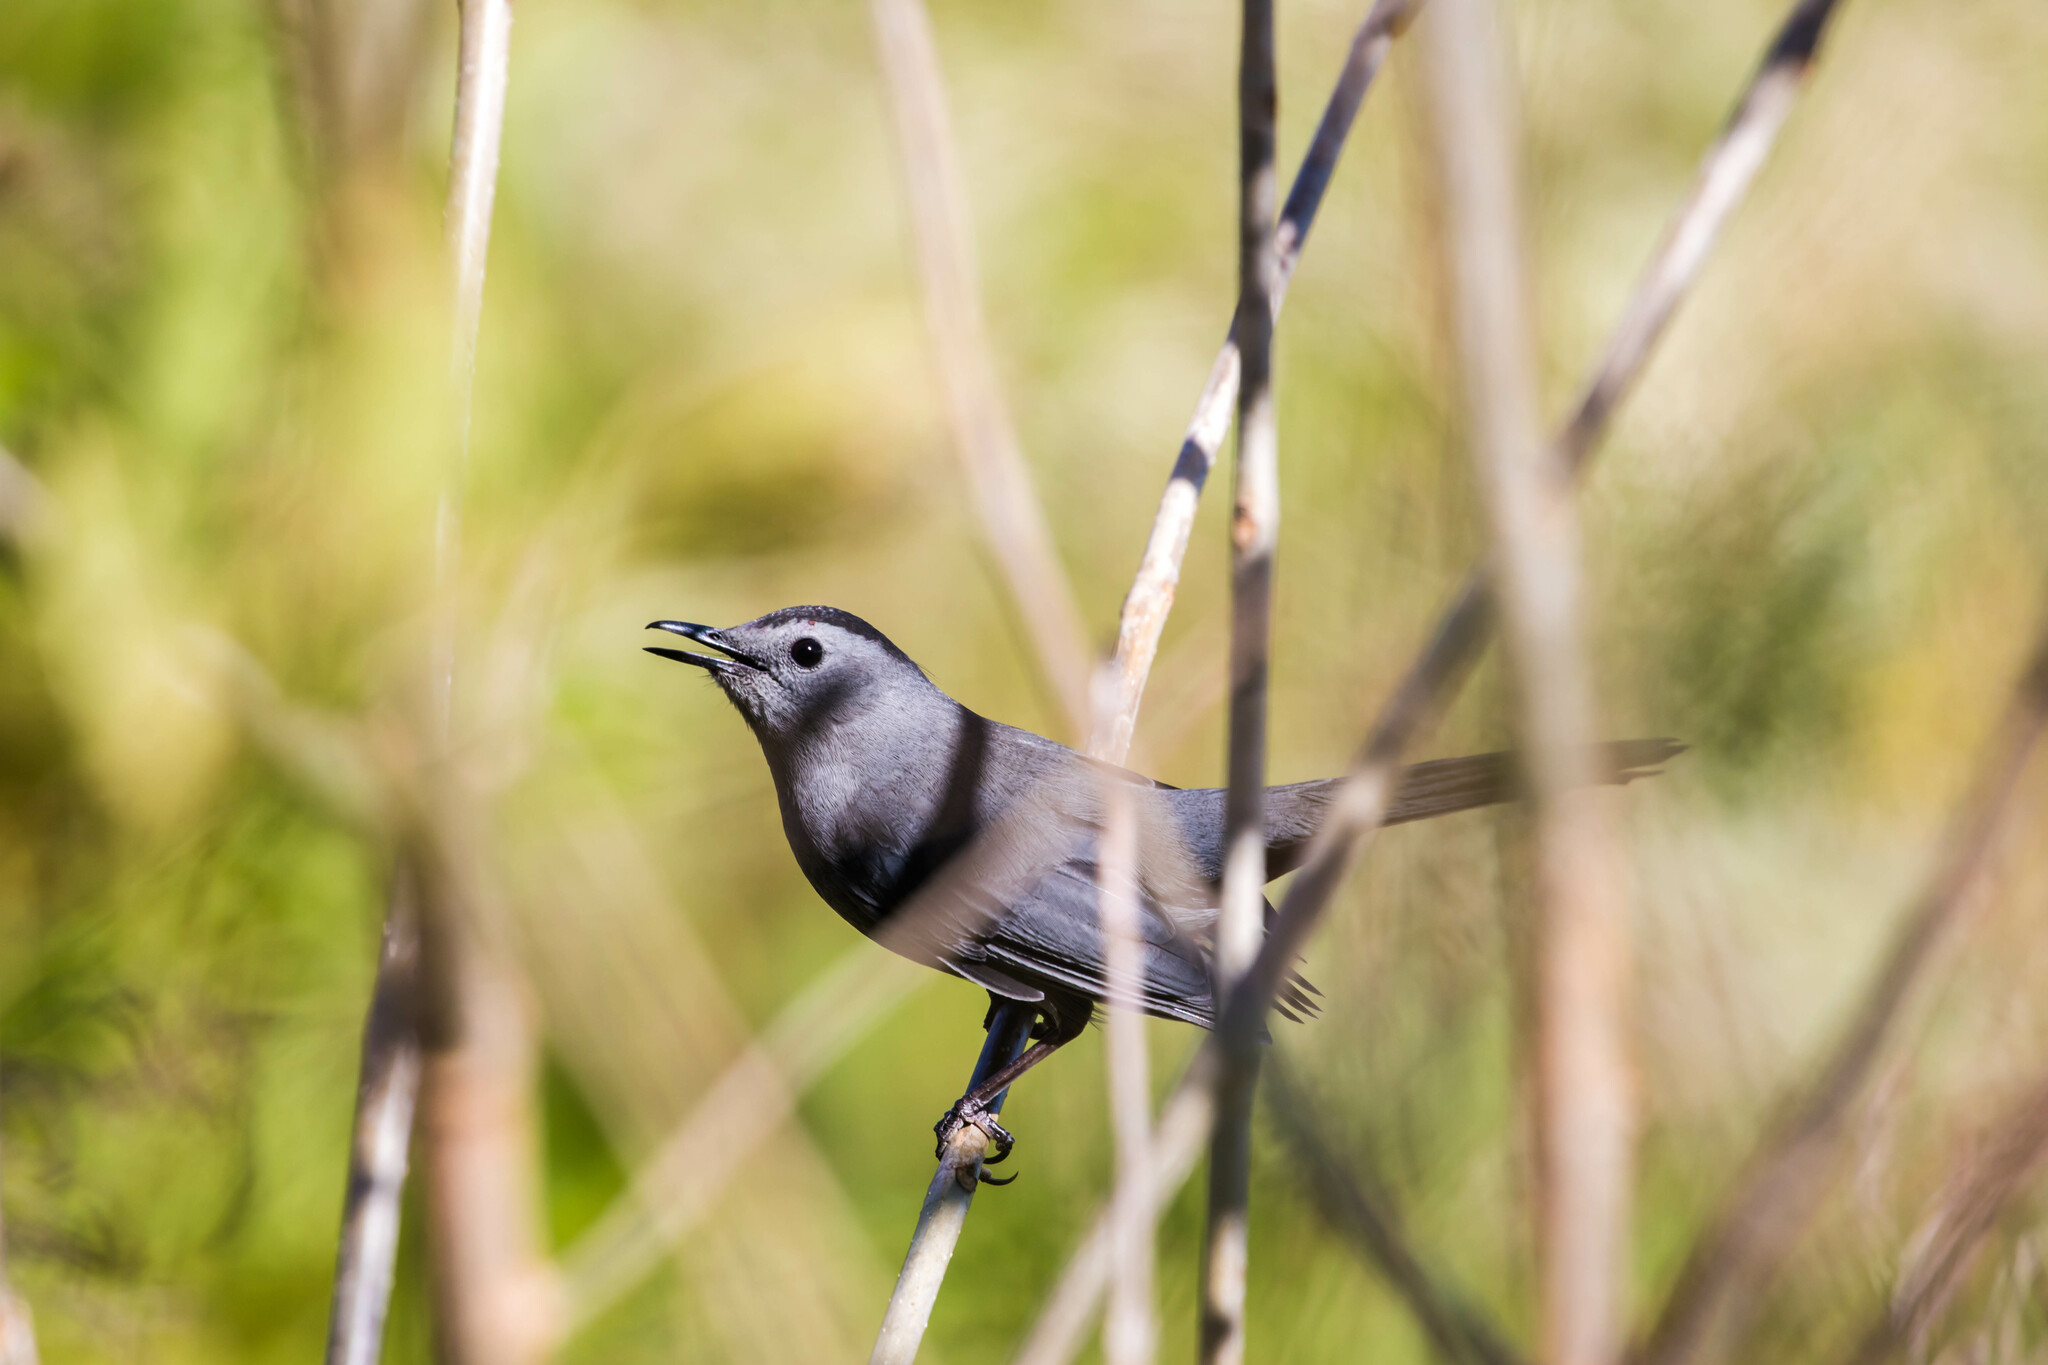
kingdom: Animalia
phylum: Chordata
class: Aves
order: Passeriformes
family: Mimidae
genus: Dumetella
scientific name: Dumetella carolinensis
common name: Gray catbird
